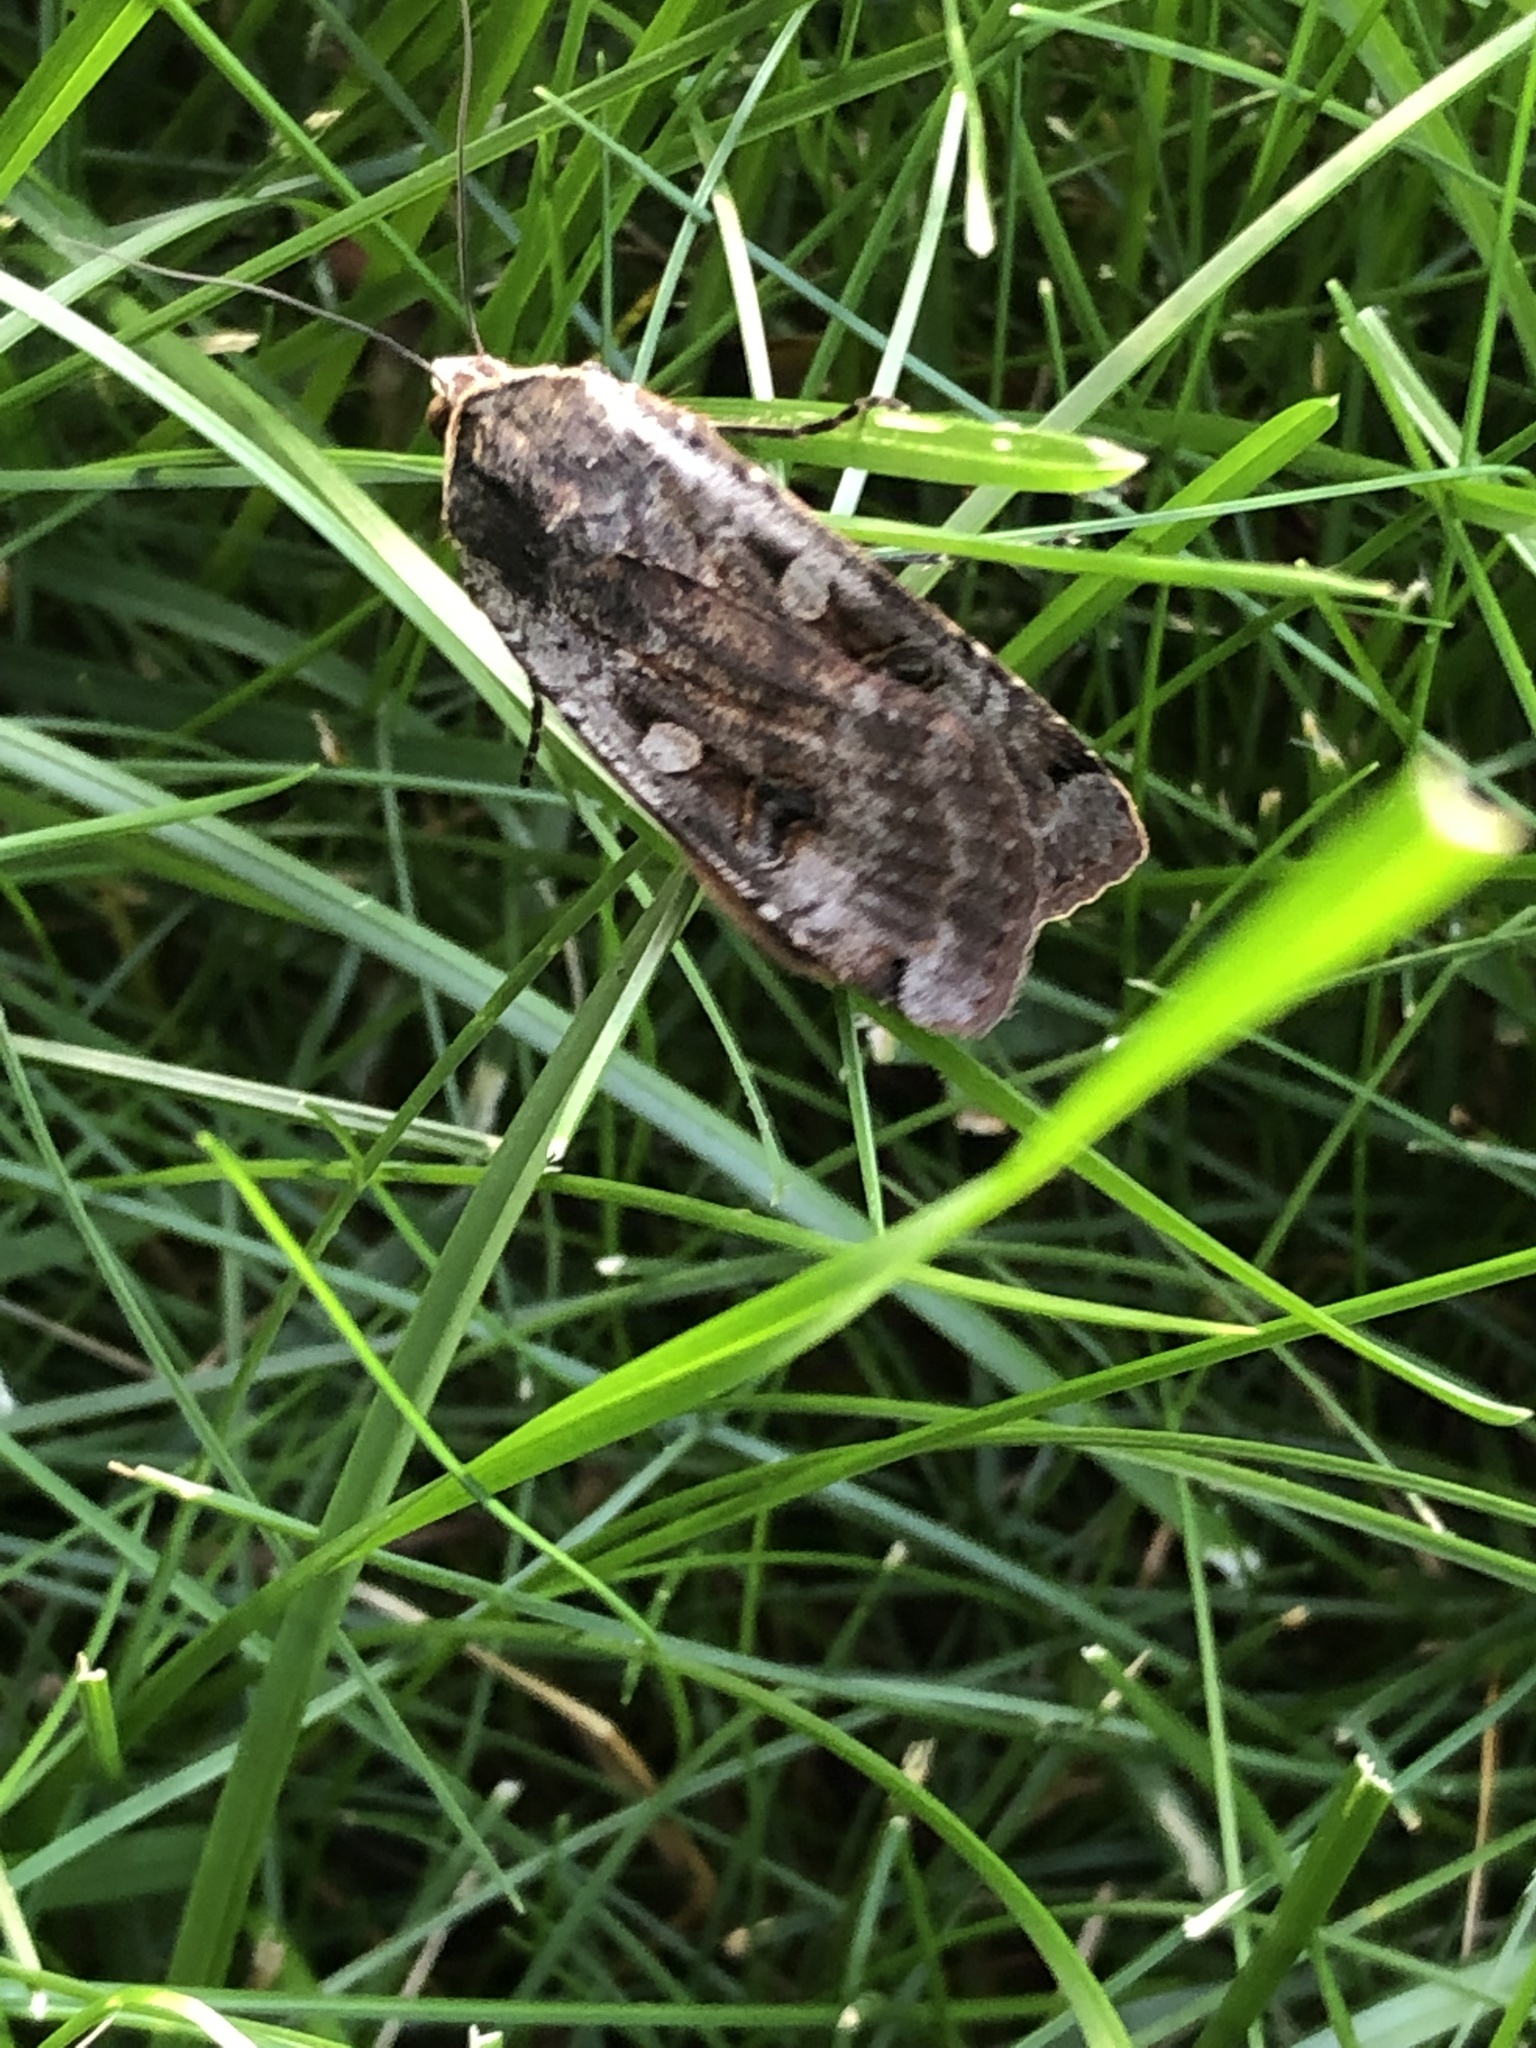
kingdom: Animalia
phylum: Arthropoda
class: Insecta
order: Lepidoptera
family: Noctuidae
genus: Noctua
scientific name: Noctua pronuba
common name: Large yellow underwing
